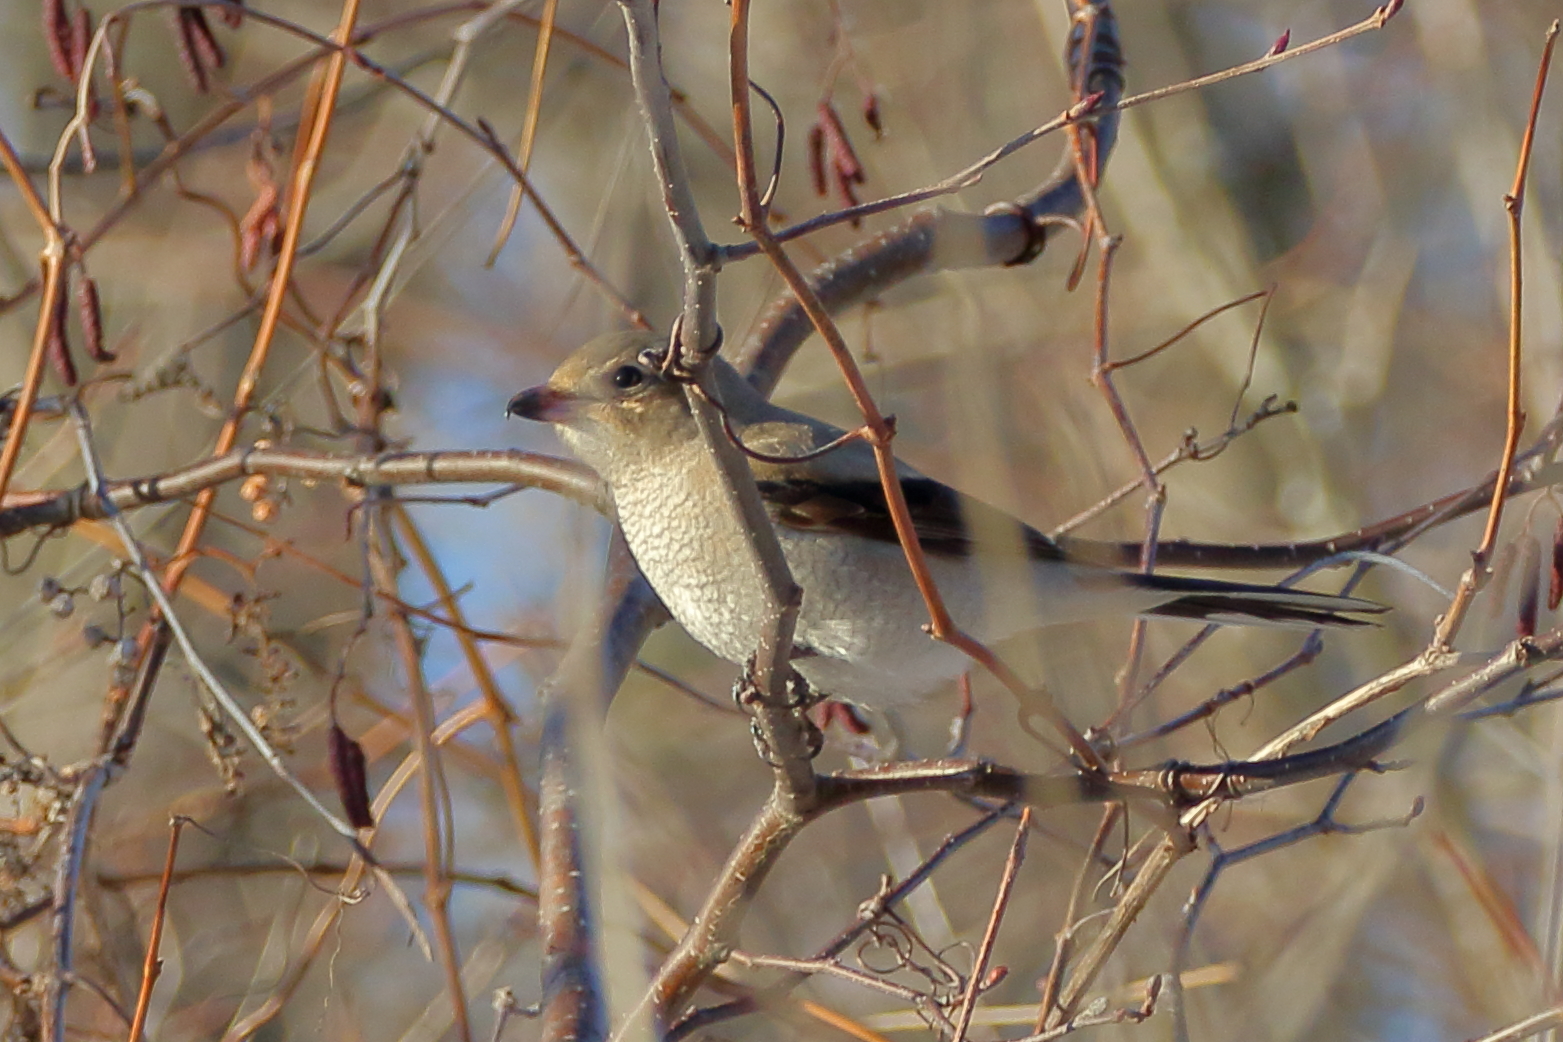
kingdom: Animalia
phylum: Chordata
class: Aves
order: Passeriformes
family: Laniidae
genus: Lanius
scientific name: Lanius borealis
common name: Northern shrike
